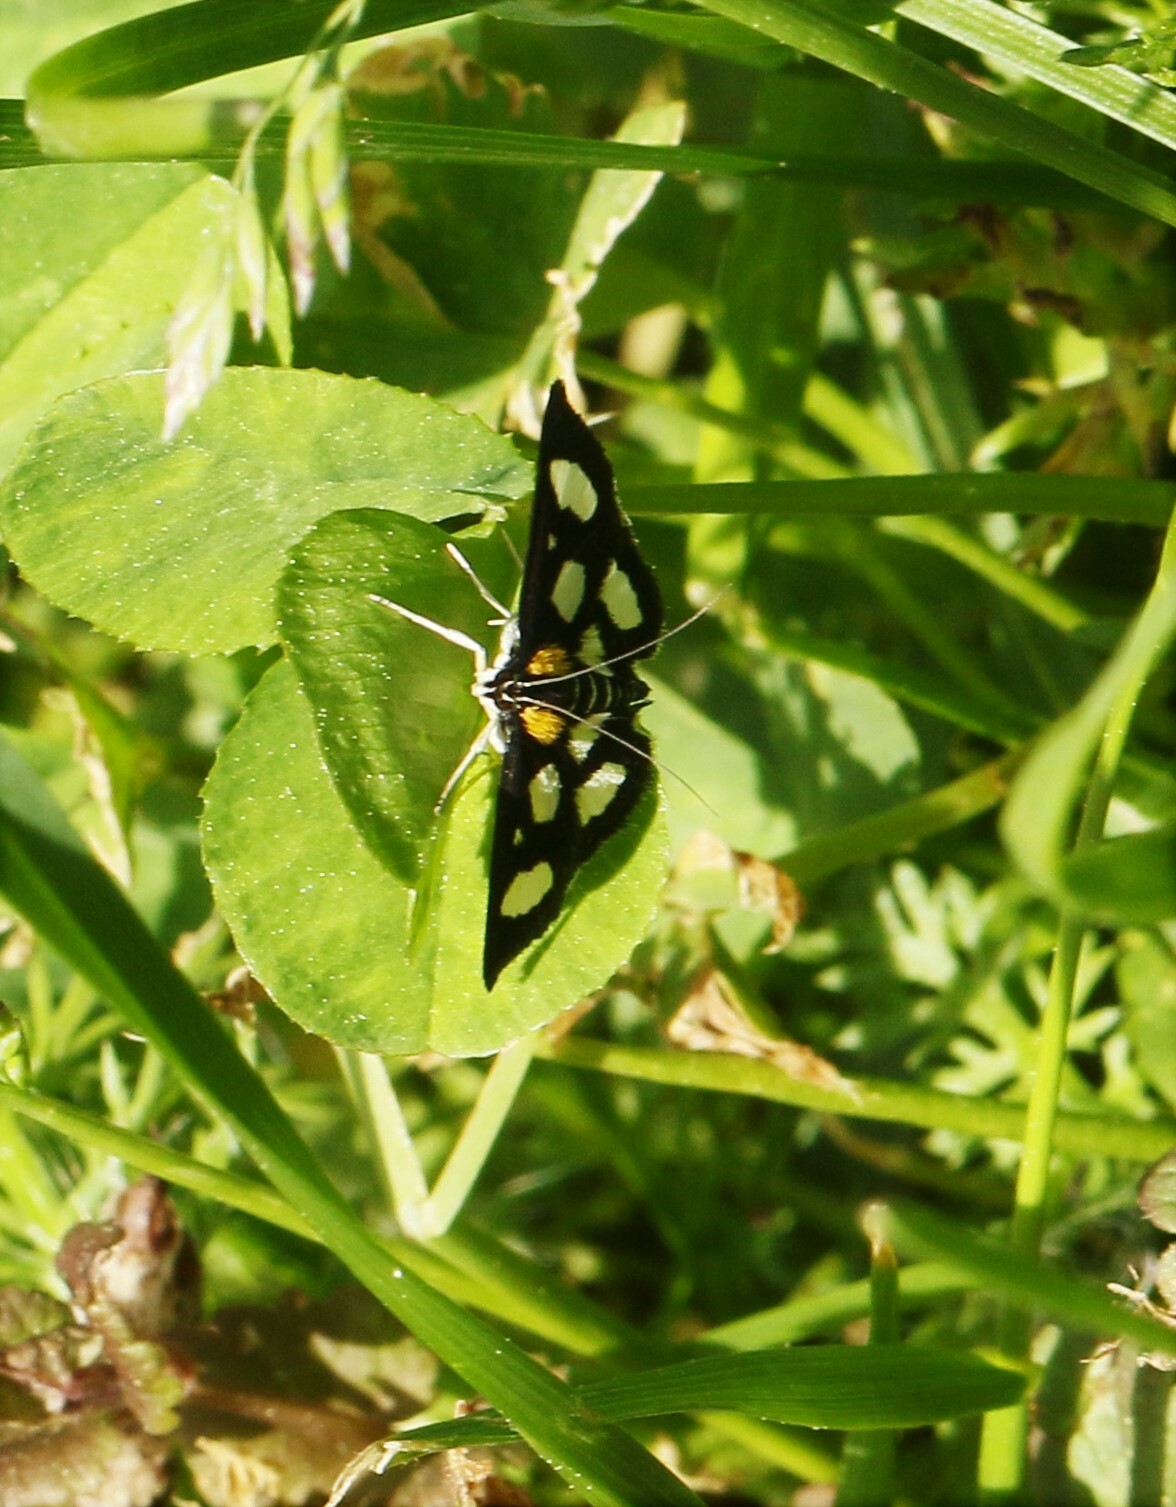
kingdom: Animalia
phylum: Arthropoda
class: Insecta
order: Lepidoptera
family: Crambidae
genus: Anania
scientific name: Anania funebris
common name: White-spotted sable moth
